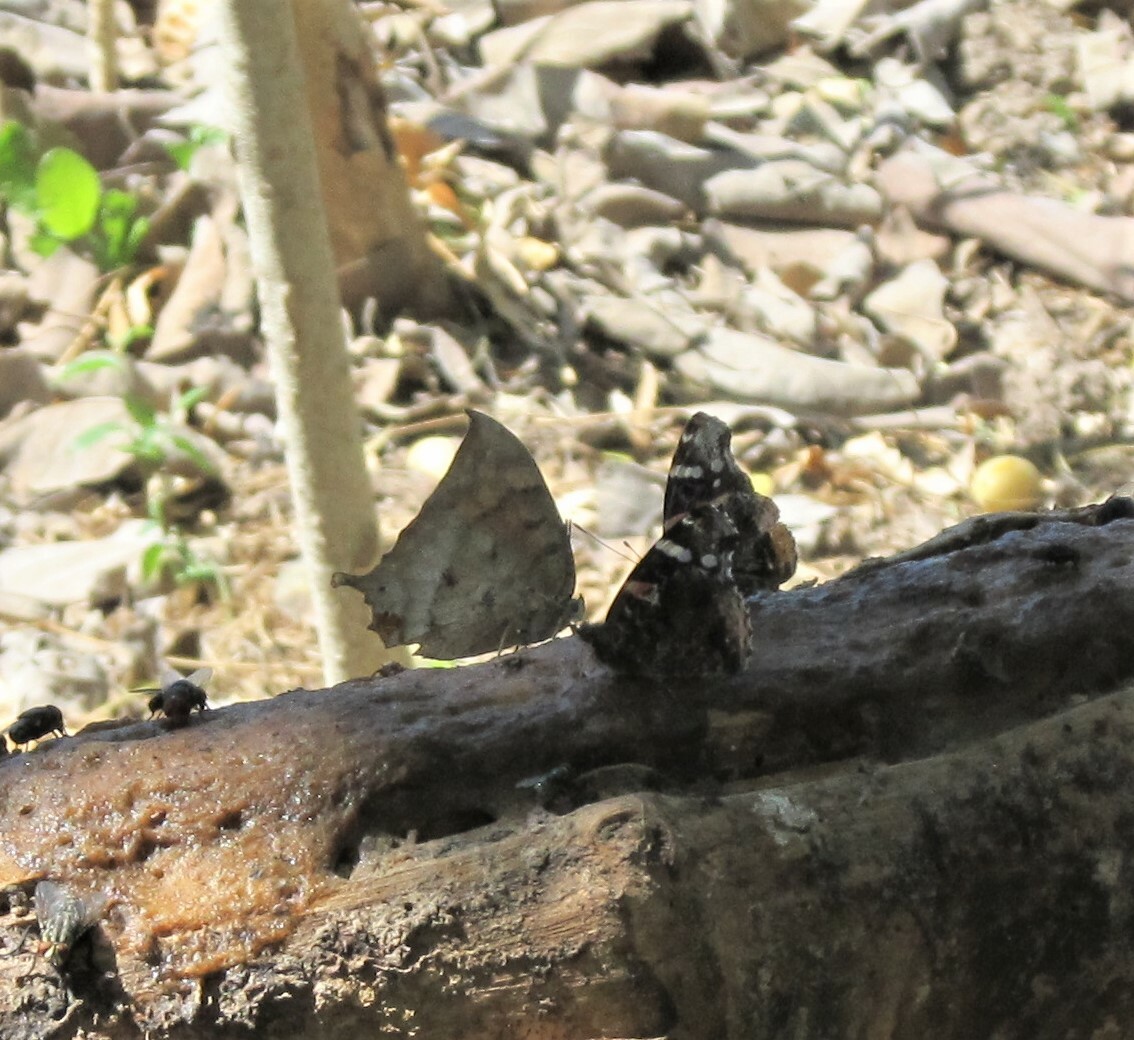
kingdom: Animalia
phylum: Arthropoda
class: Insecta
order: Lepidoptera
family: Nymphalidae
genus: Anaea
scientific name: Anaea aidea
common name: Tropical leafwing
